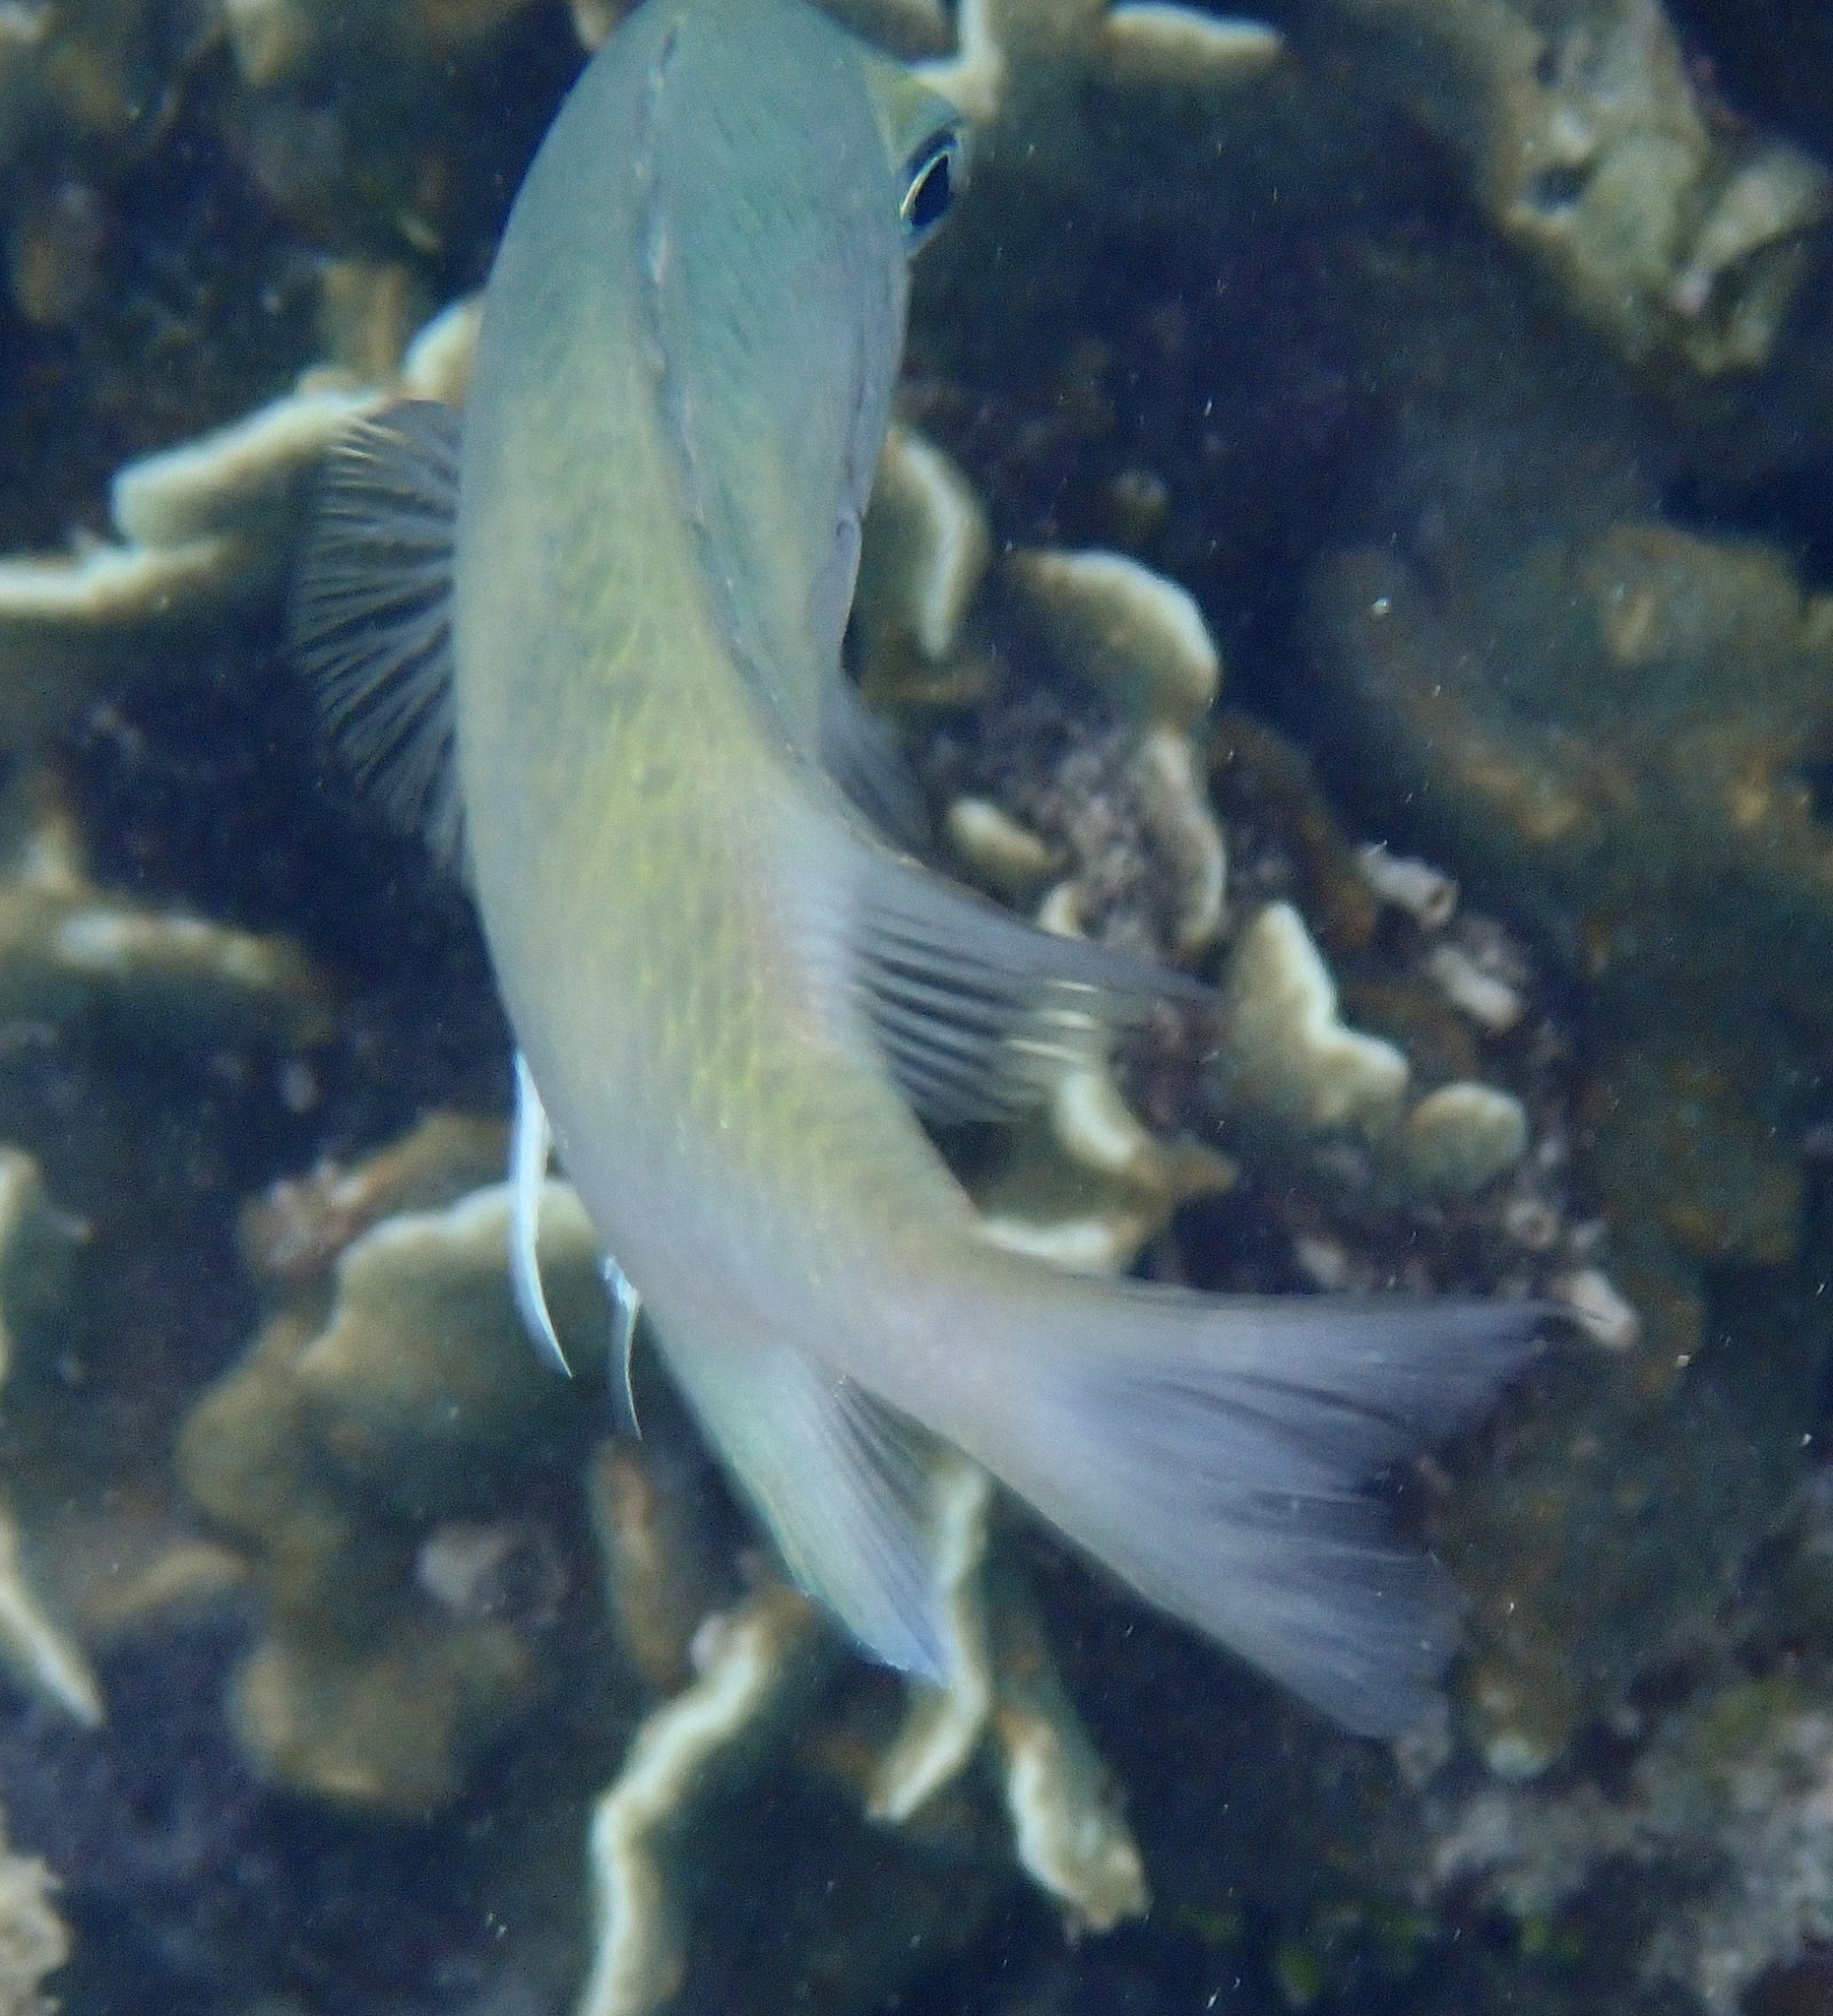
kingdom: Animalia
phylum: Chordata
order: Perciformes
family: Pomacentridae
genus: Amblyglyphidodon
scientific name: Amblyglyphidodon curacao
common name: Staghorn damsel
